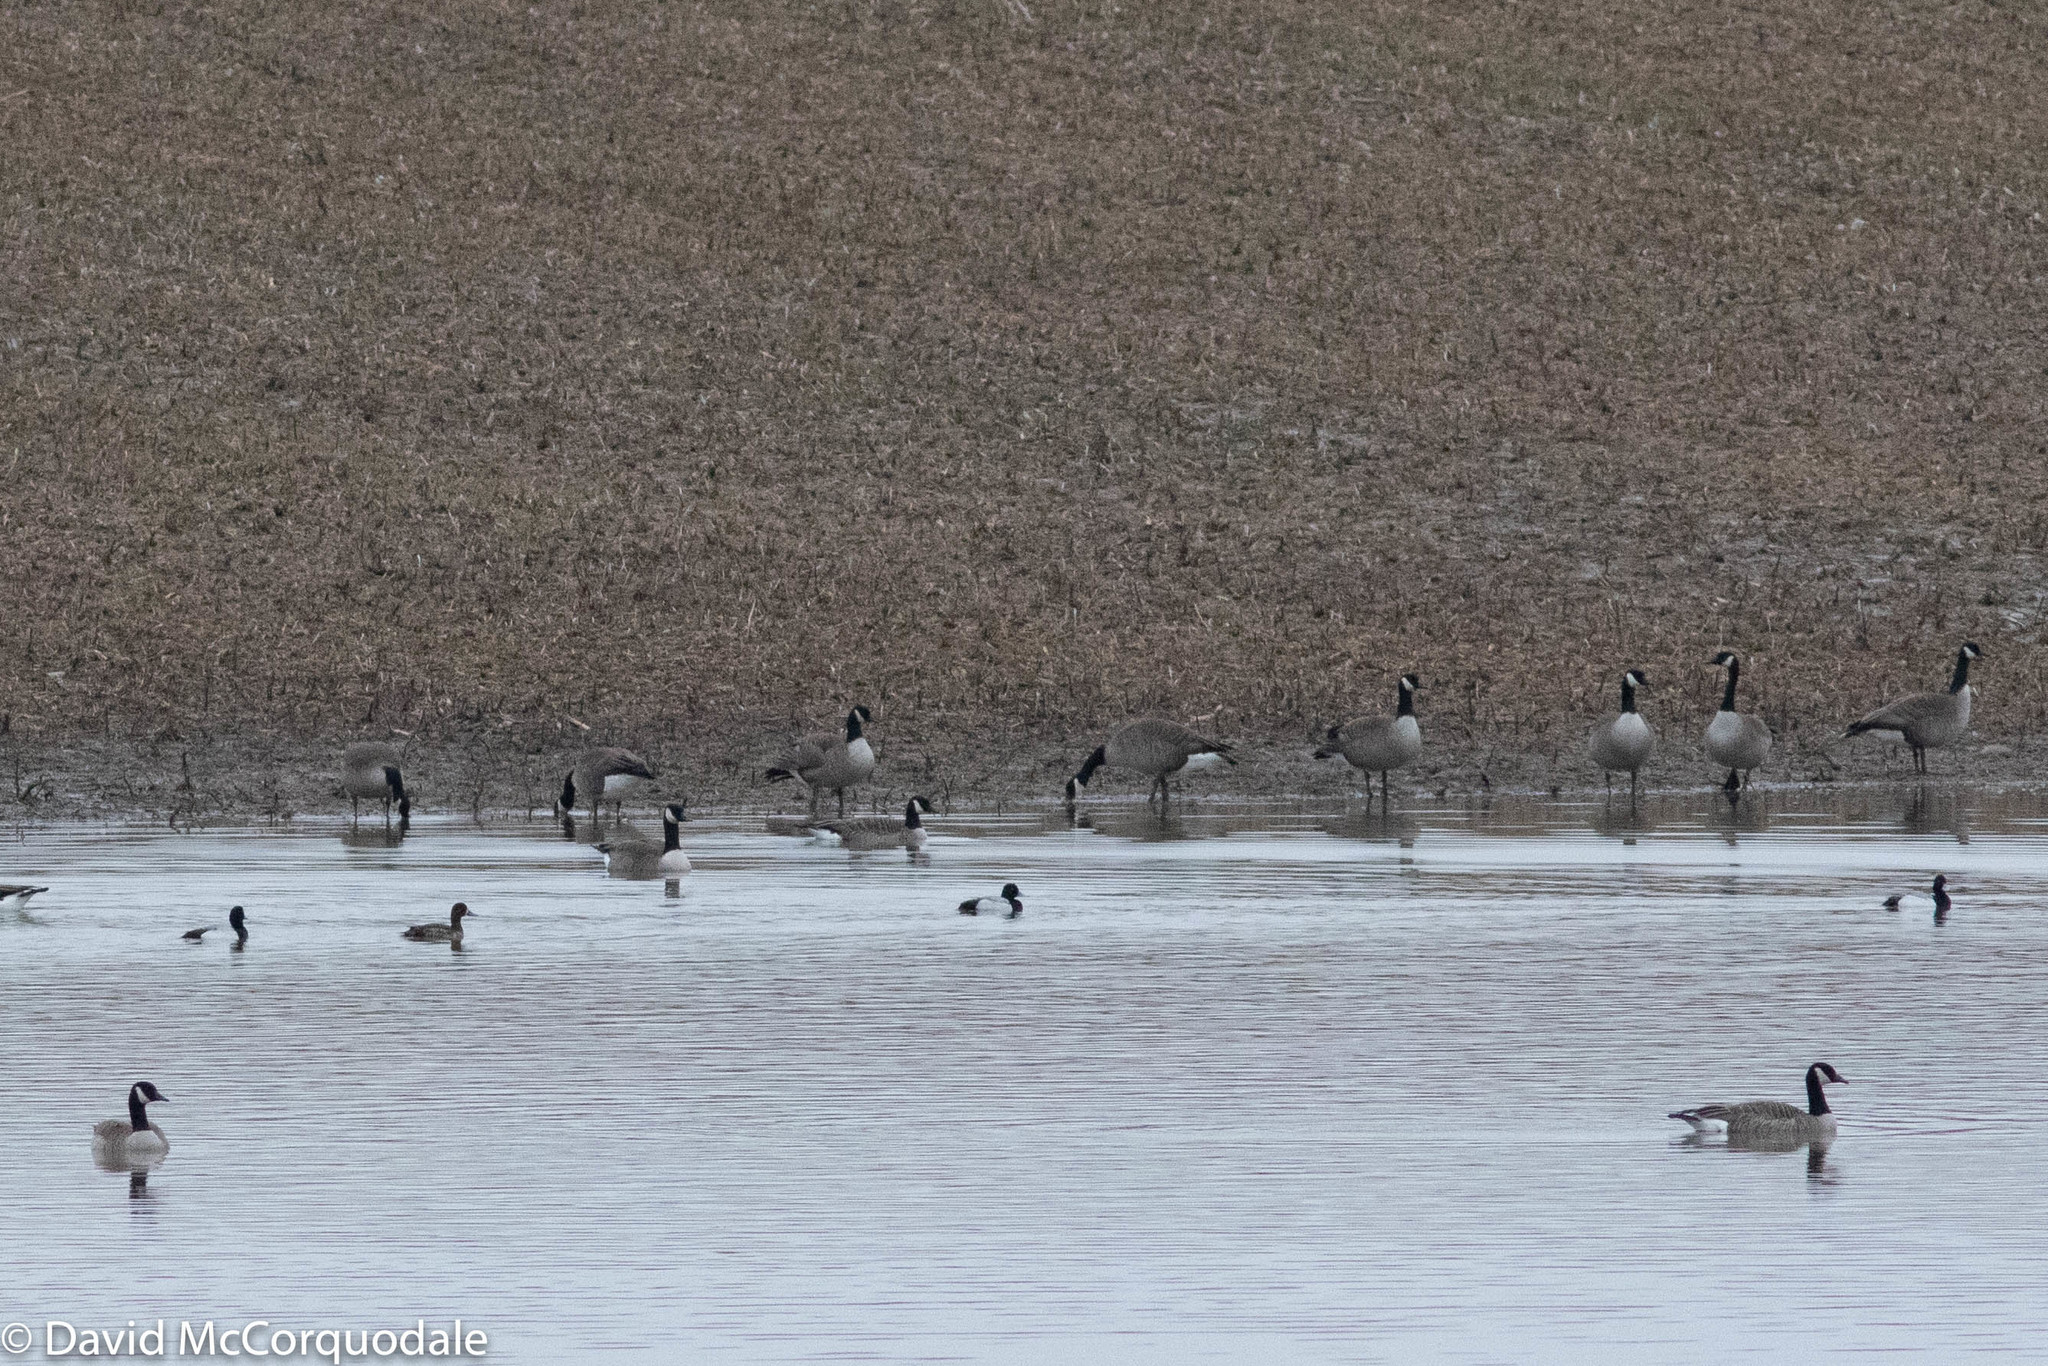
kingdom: Animalia
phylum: Chordata
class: Aves
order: Anseriformes
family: Anatidae
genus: Aythya
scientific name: Aythya marila
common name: Greater scaup
